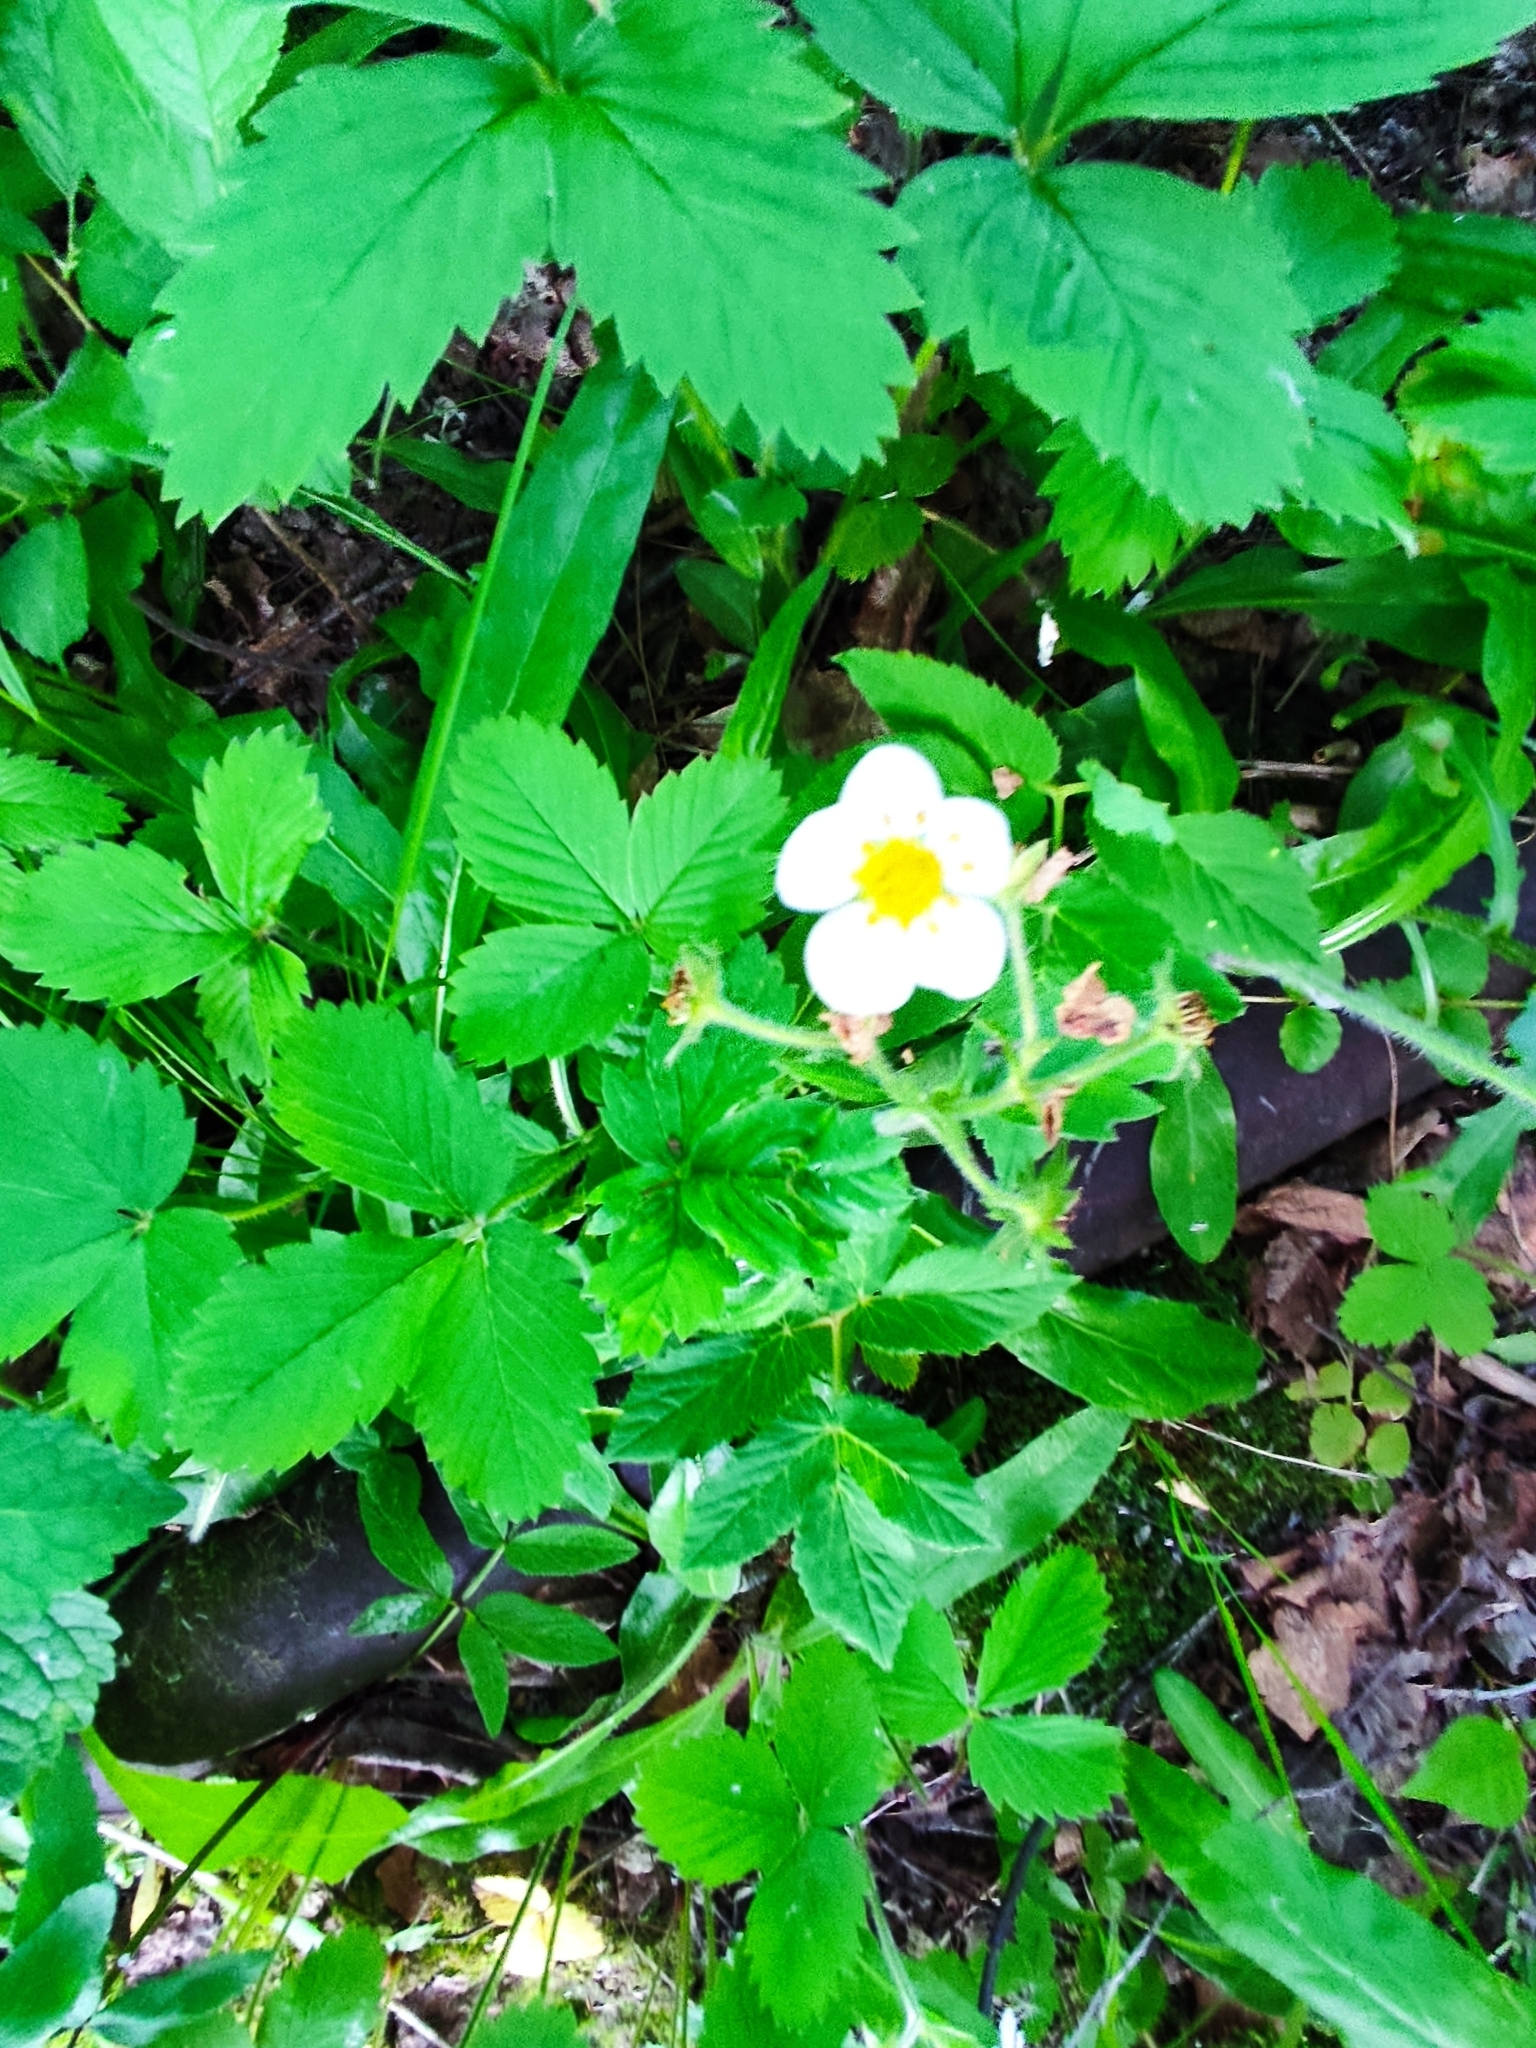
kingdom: Plantae
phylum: Tracheophyta
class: Magnoliopsida
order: Rosales
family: Rosaceae
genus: Fragaria
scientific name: Fragaria moschata
